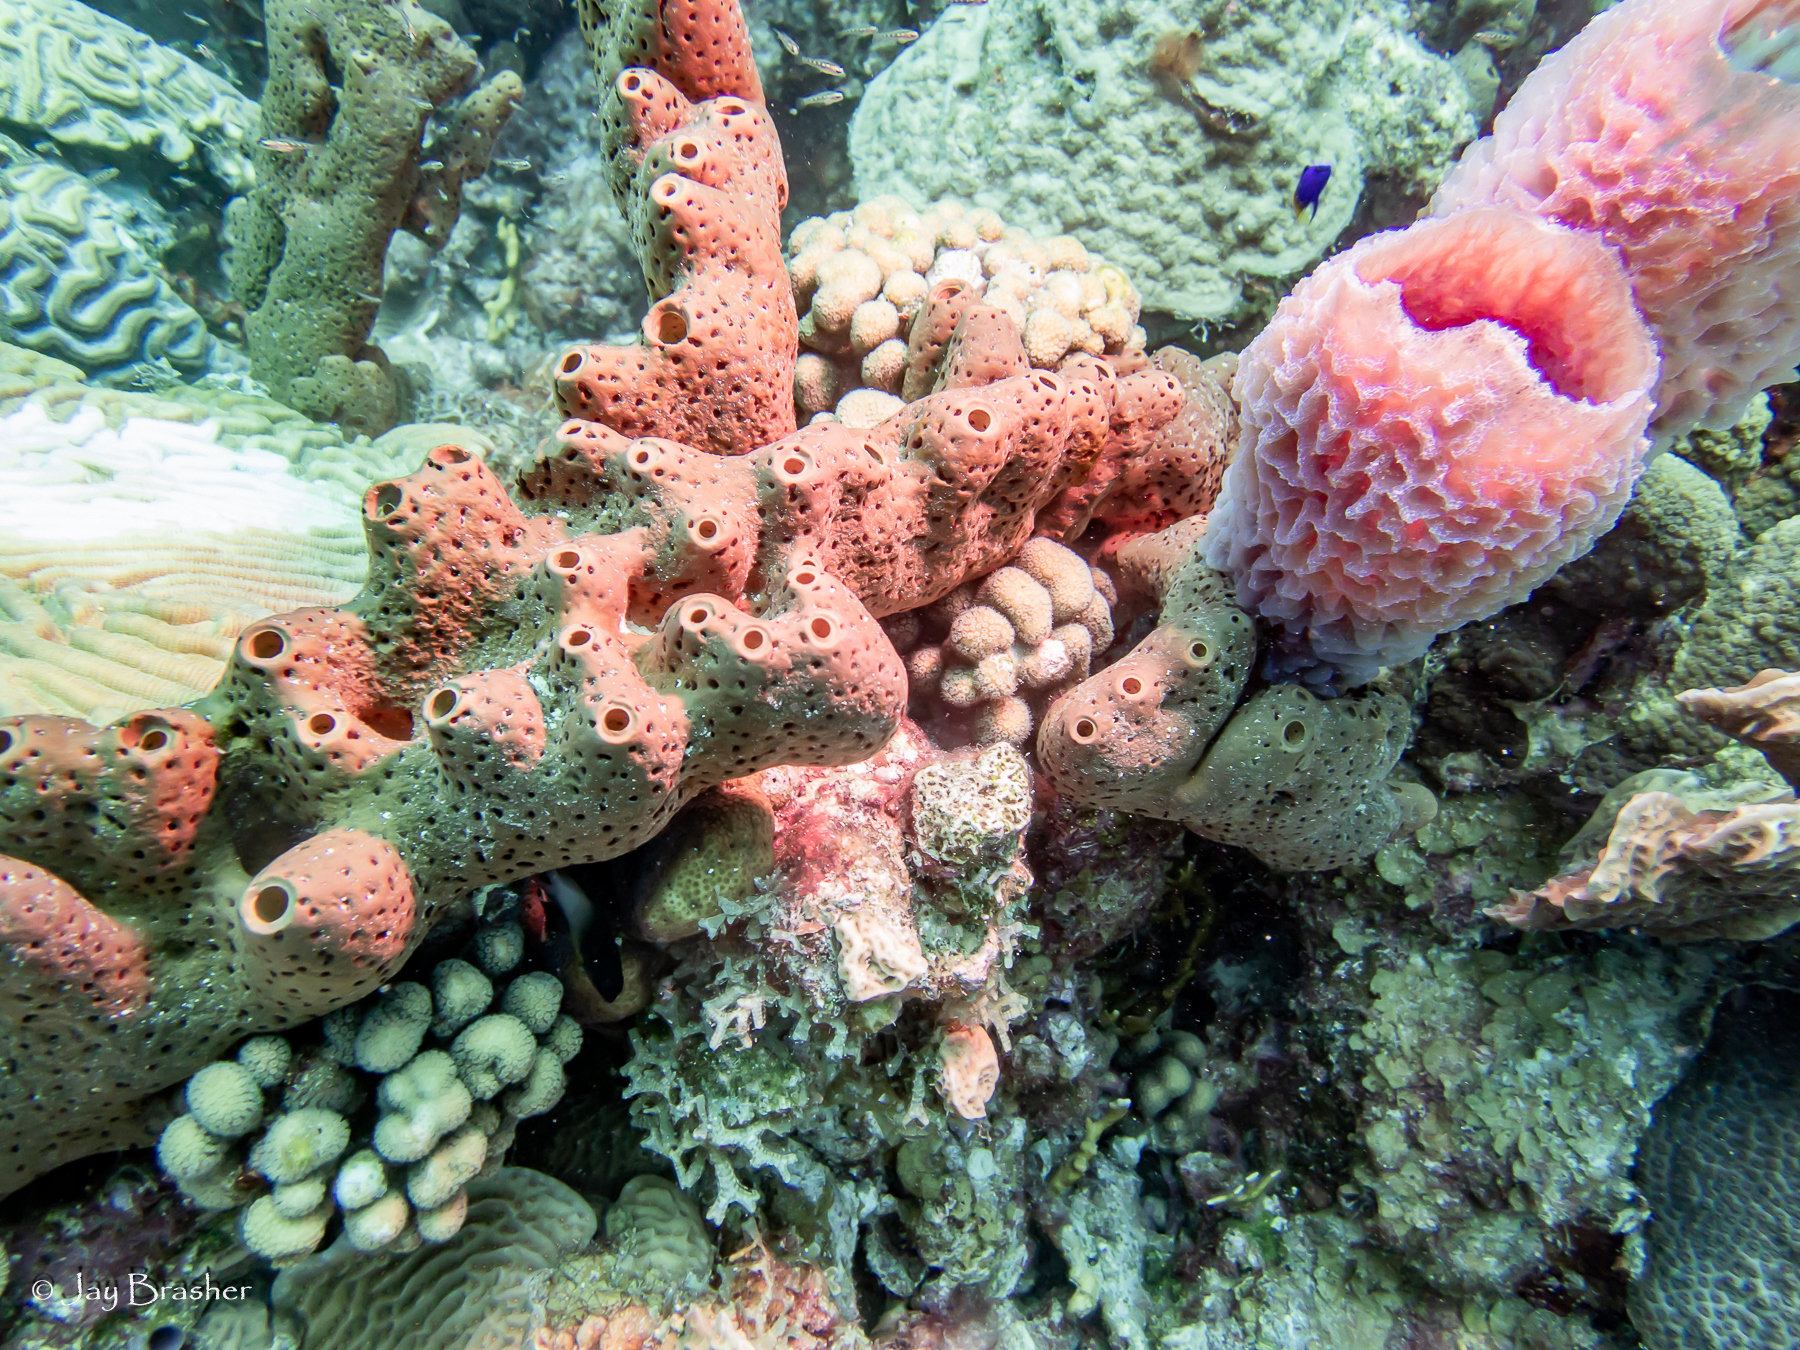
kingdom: Animalia
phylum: Porifera
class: Demospongiae
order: Agelasida
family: Agelasidae
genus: Agelas
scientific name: Agelas conifera
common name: Brown tube sponge
